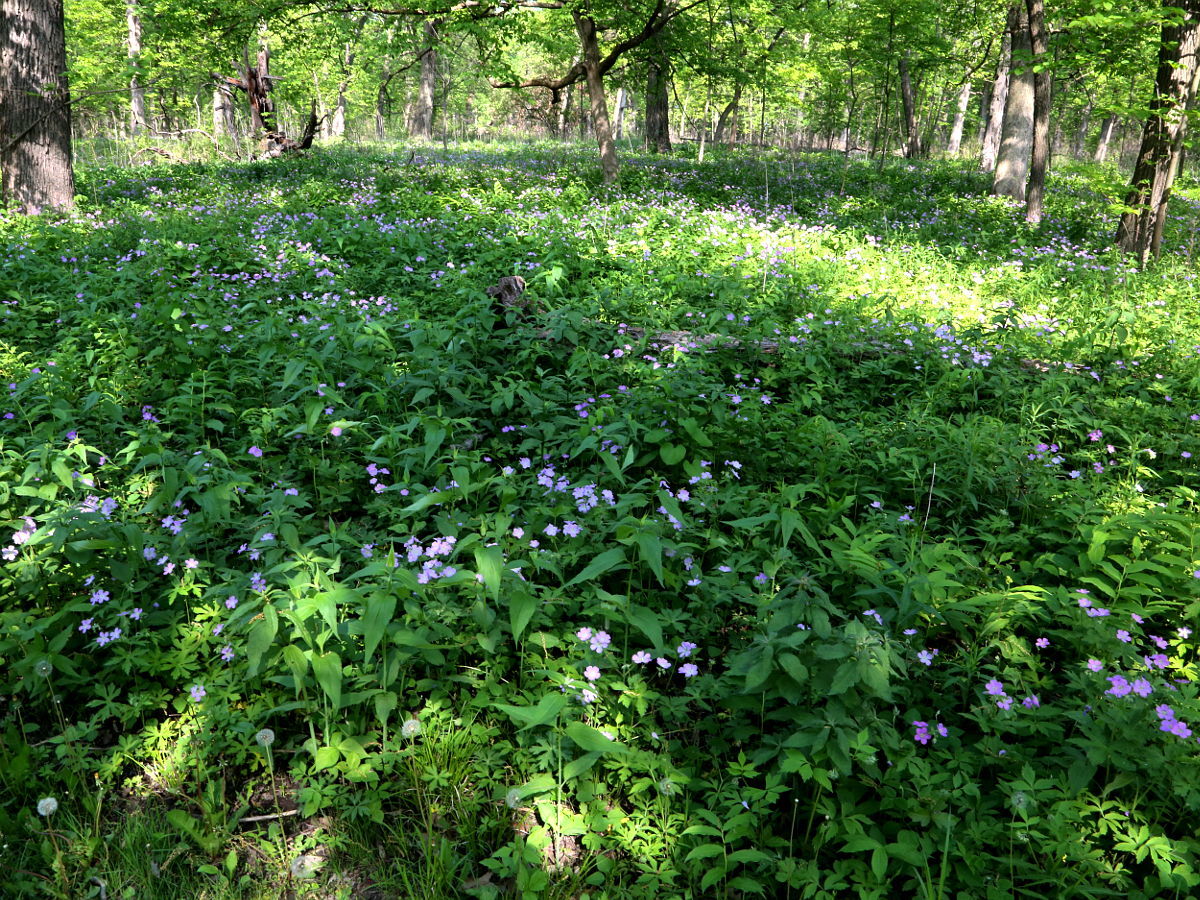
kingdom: Plantae
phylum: Tracheophyta
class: Magnoliopsida
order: Geraniales
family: Geraniaceae
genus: Geranium
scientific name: Geranium maculatum
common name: Spotted geranium
